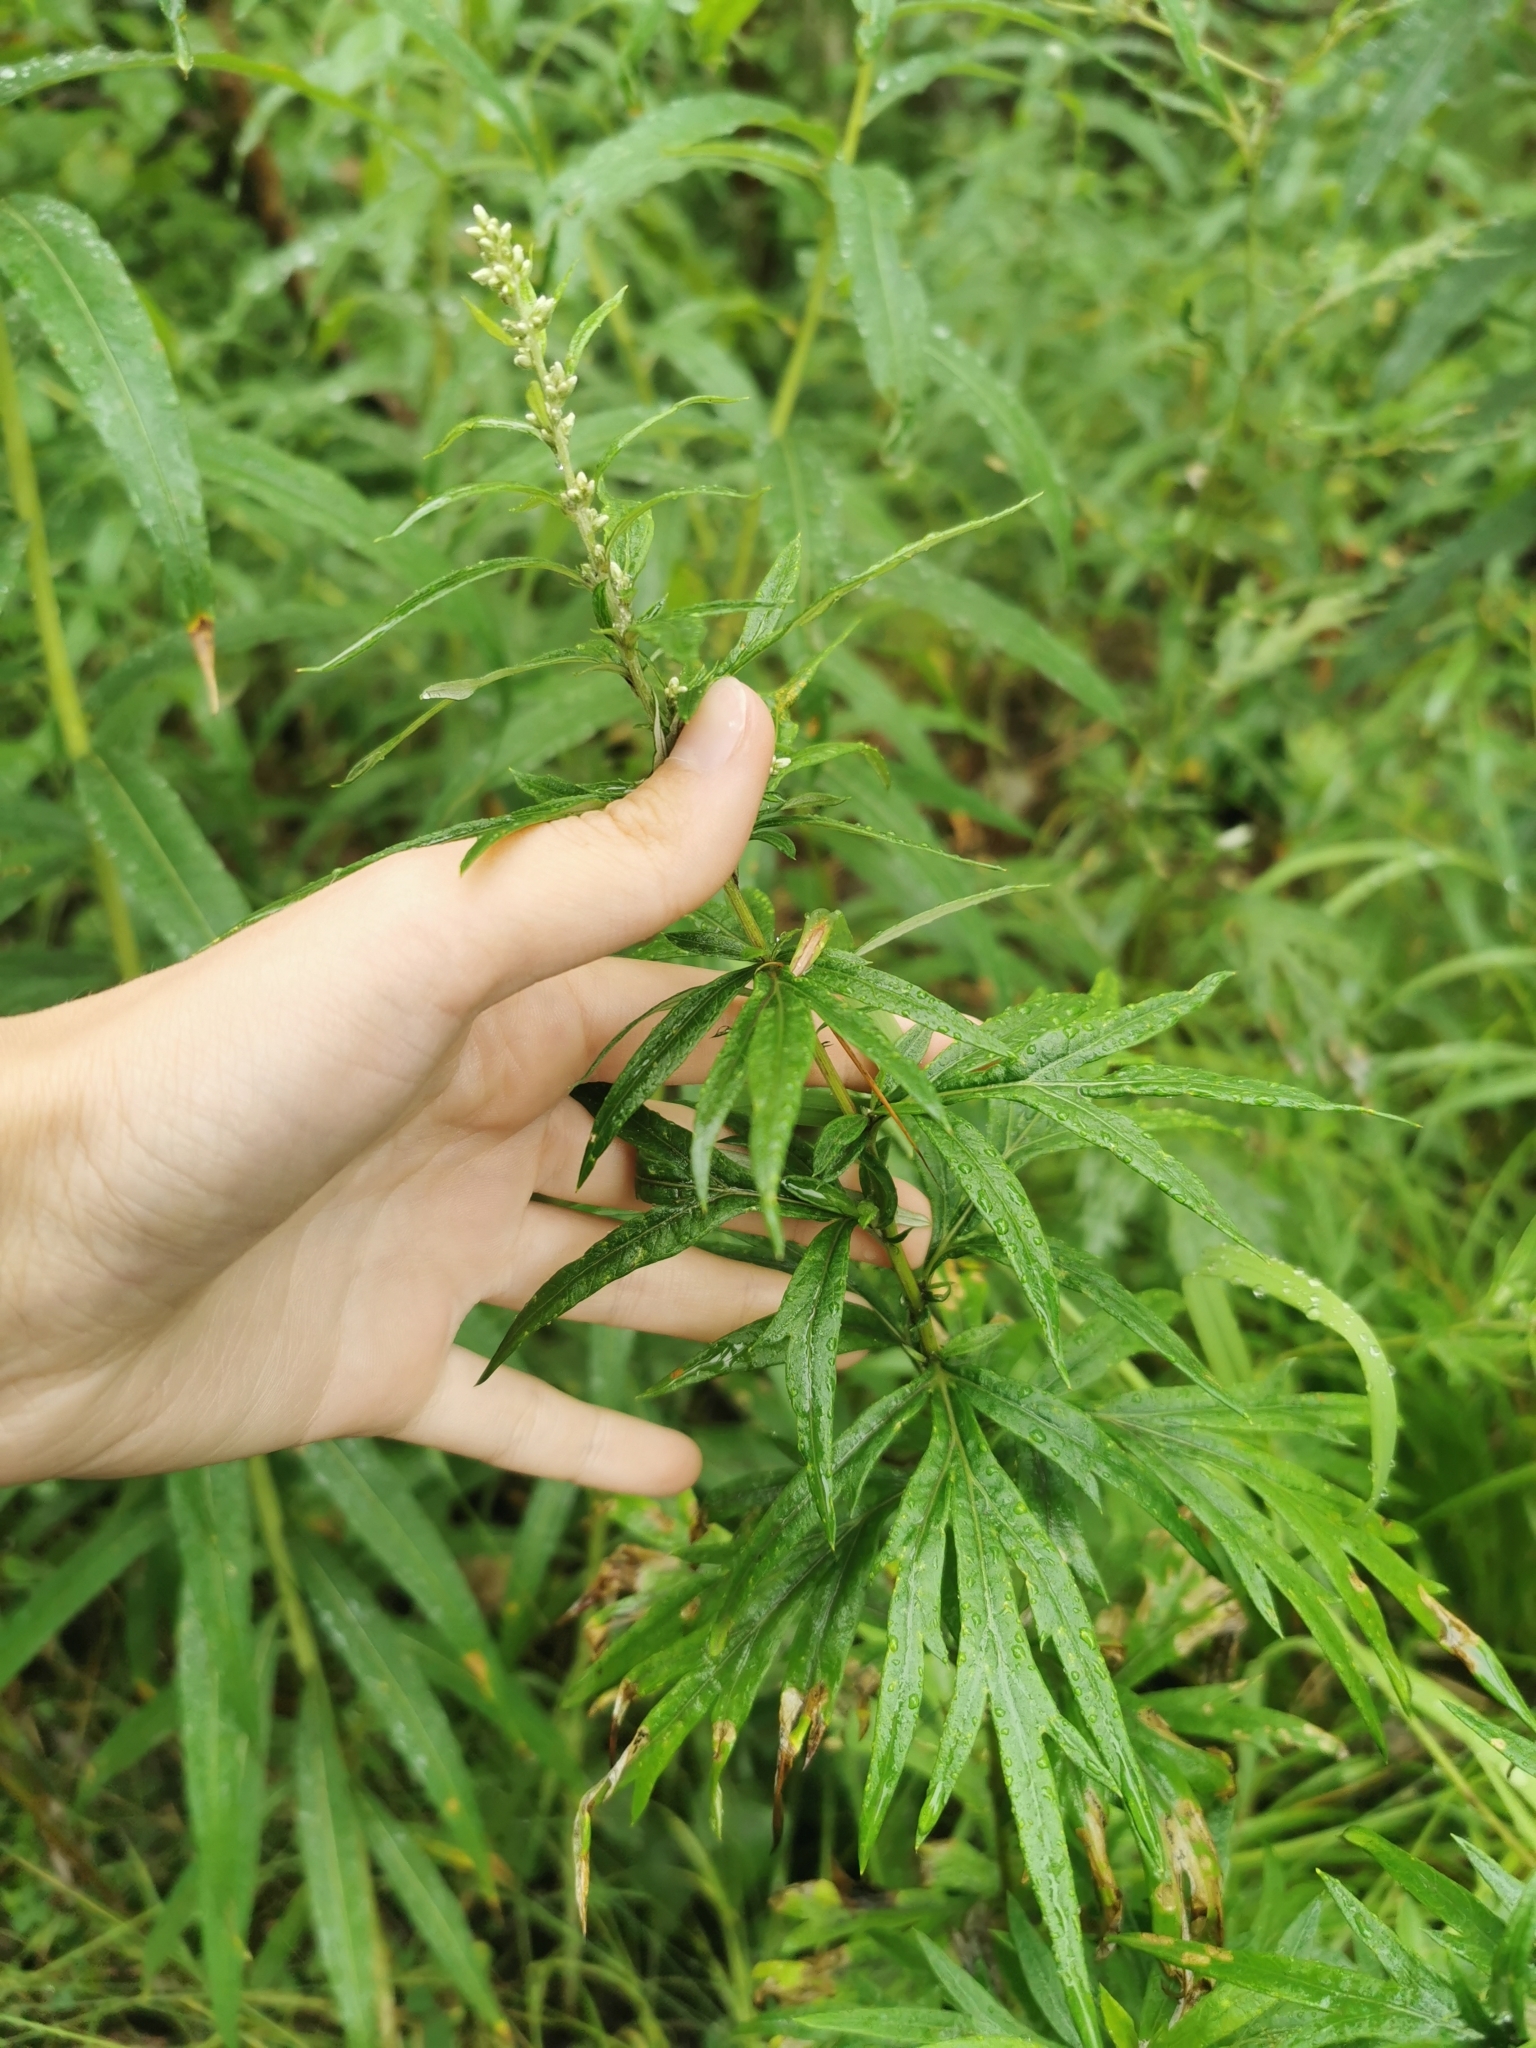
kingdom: Plantae
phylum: Tracheophyta
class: Magnoliopsida
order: Asterales
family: Asteraceae
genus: Artemisia
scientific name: Artemisia vulgaris
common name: Mugwort
